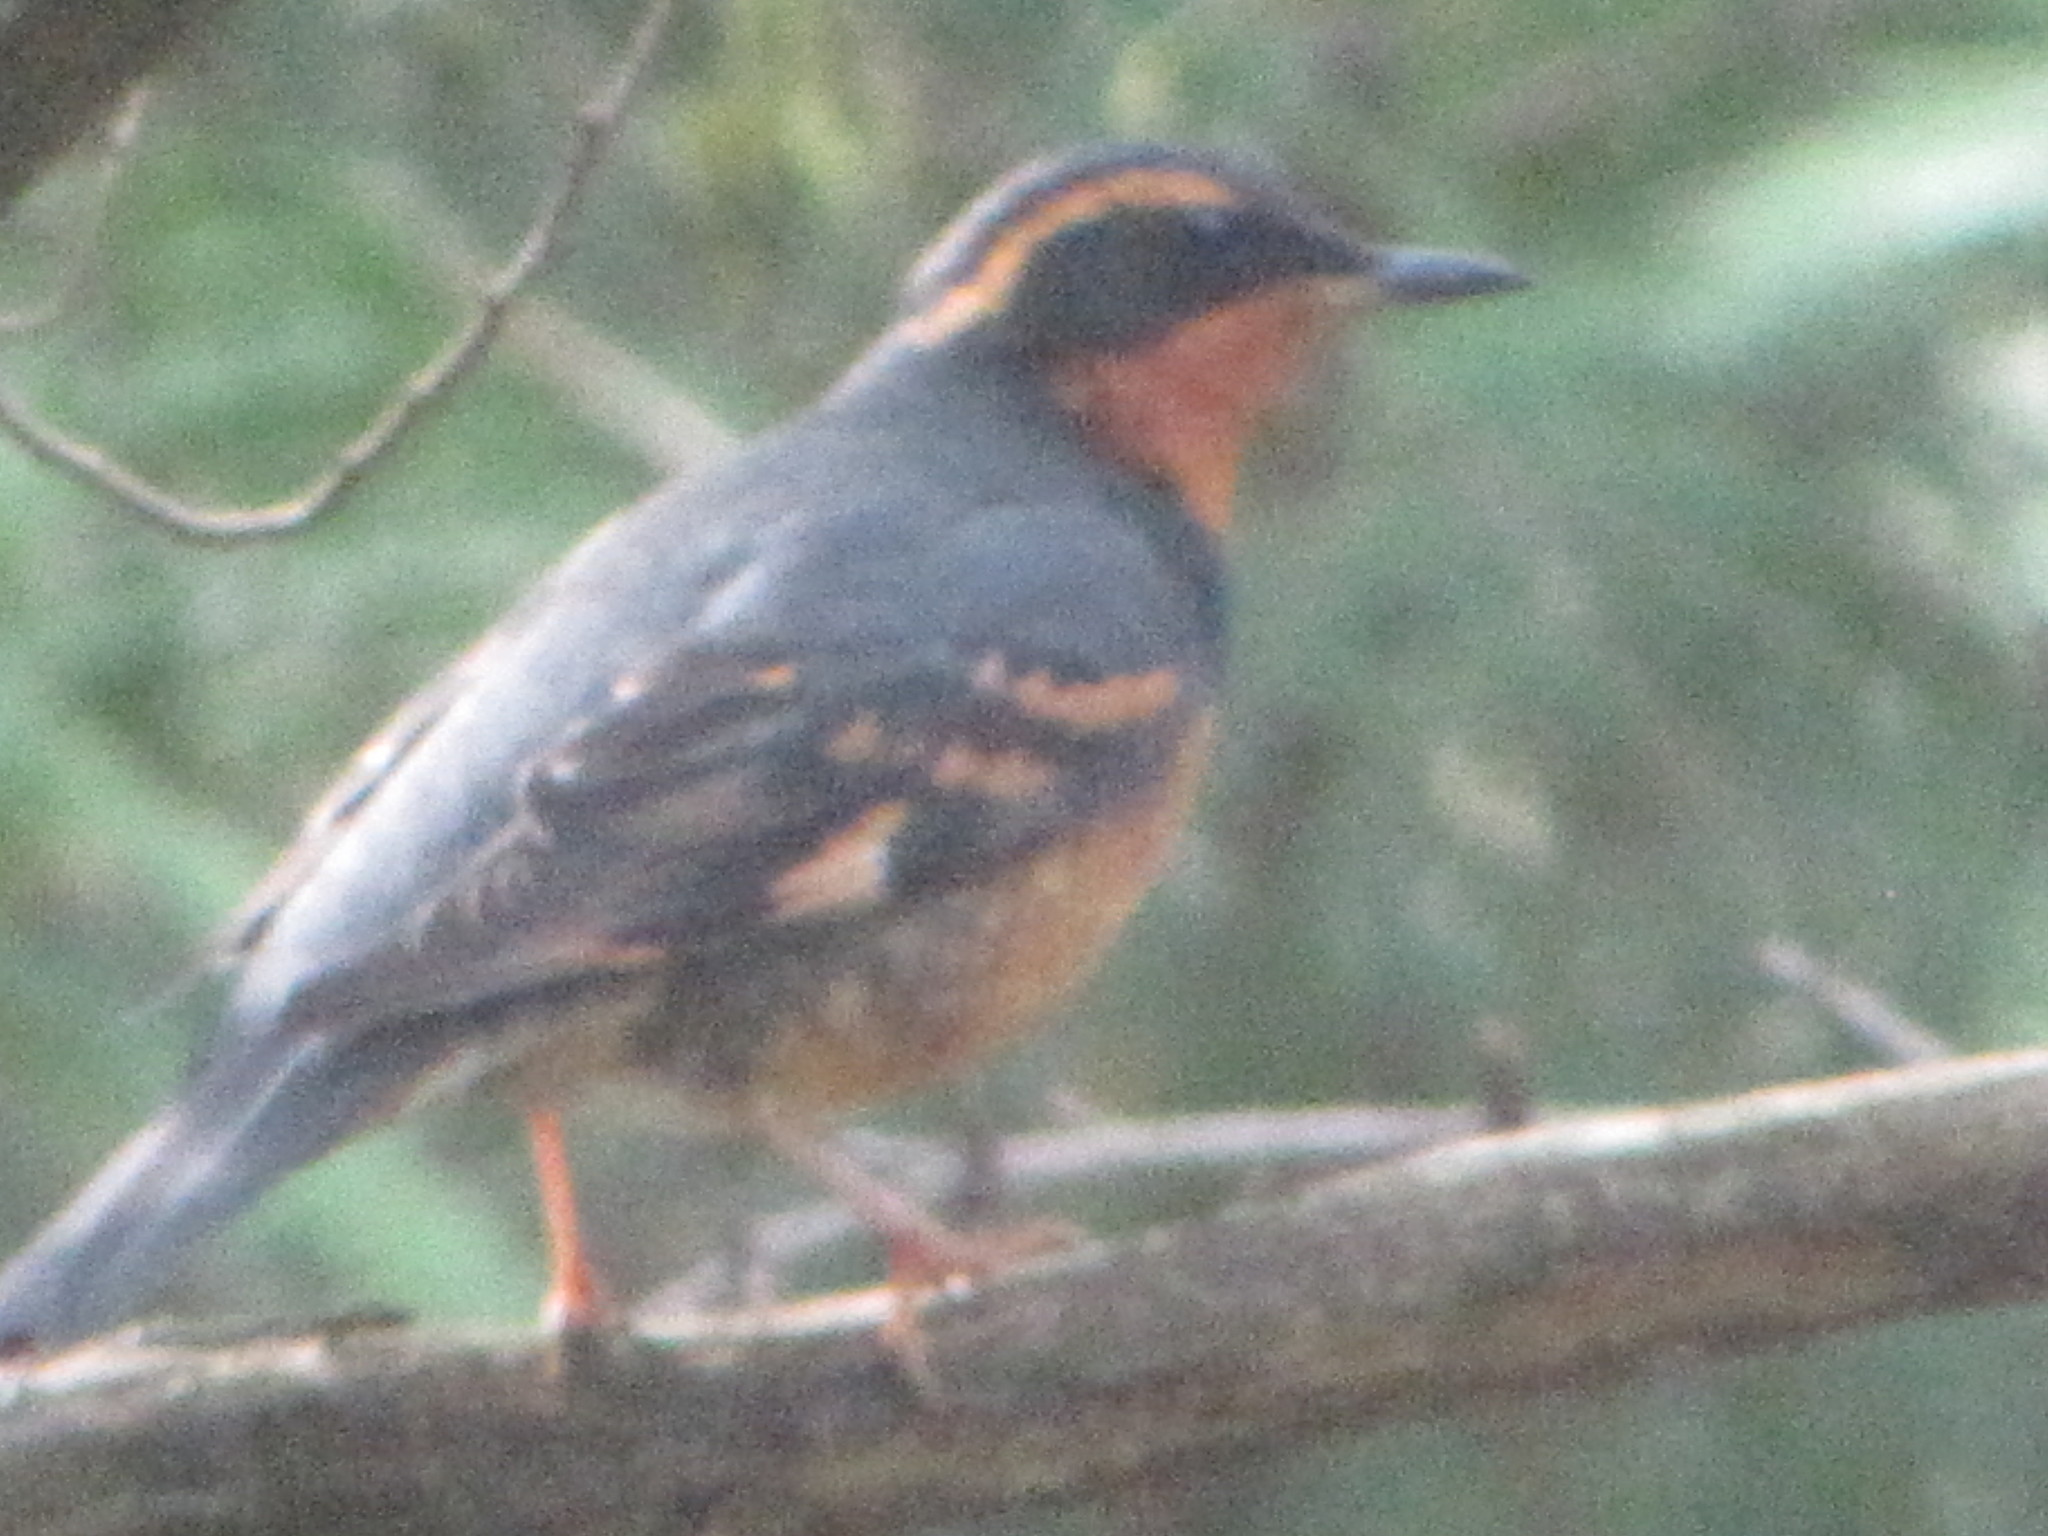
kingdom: Animalia
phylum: Chordata
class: Aves
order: Passeriformes
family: Turdidae
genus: Ixoreus
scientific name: Ixoreus naevius
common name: Varied thrush
